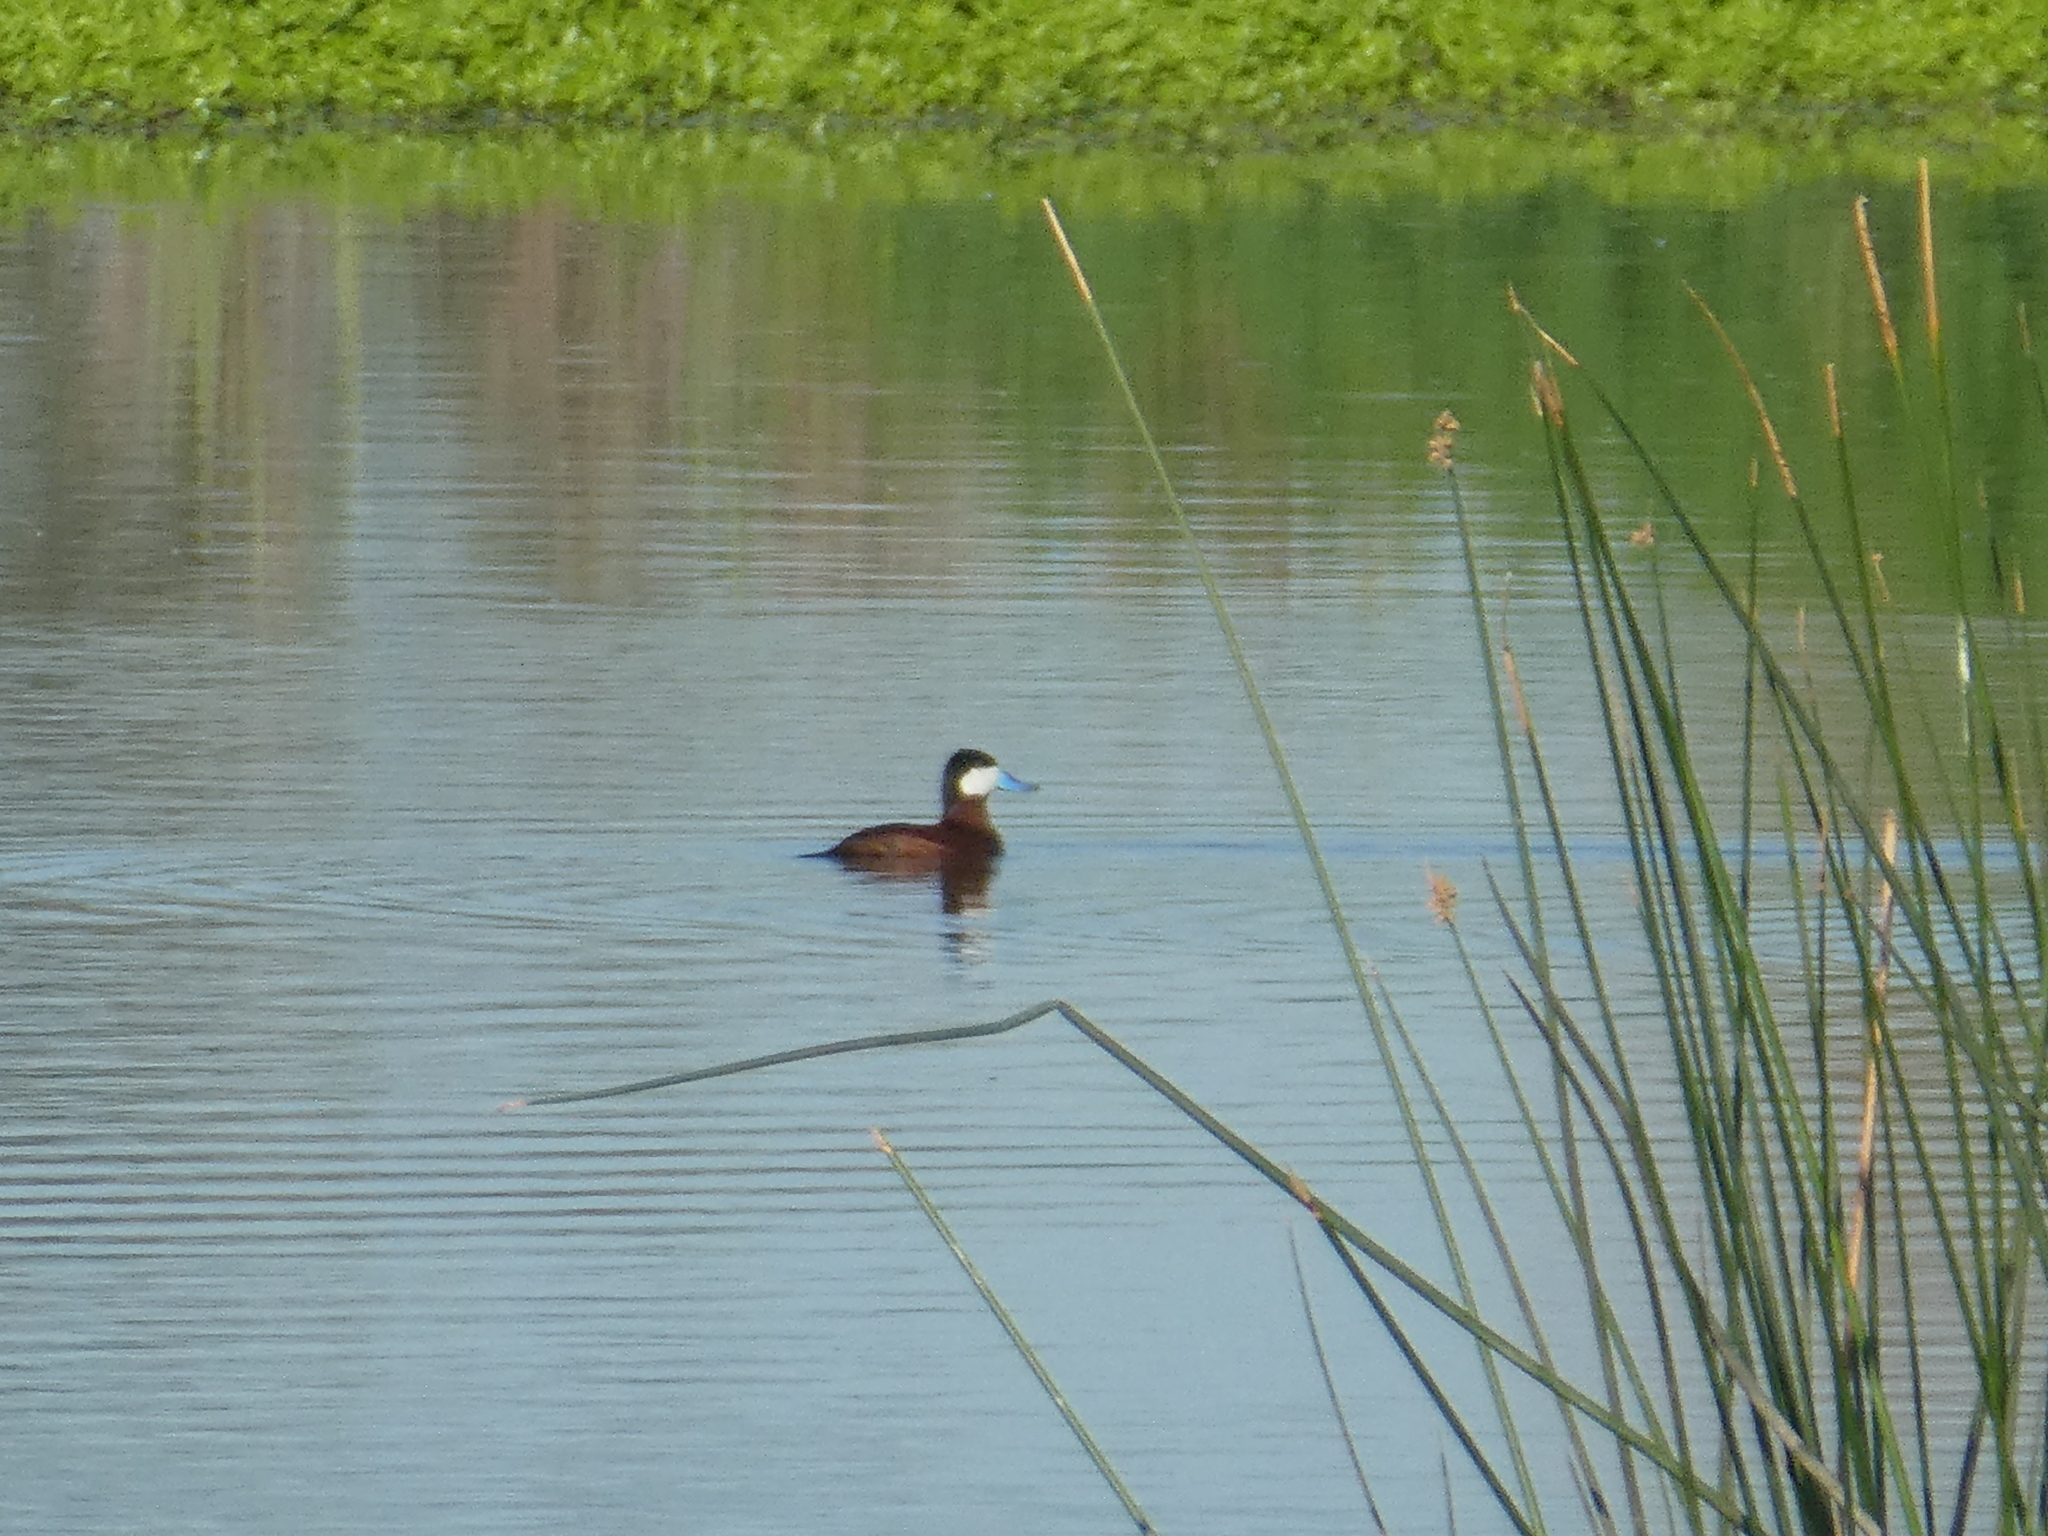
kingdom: Animalia
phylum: Chordata
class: Aves
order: Anseriformes
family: Anatidae
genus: Oxyura
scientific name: Oxyura jamaicensis
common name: Ruddy duck
